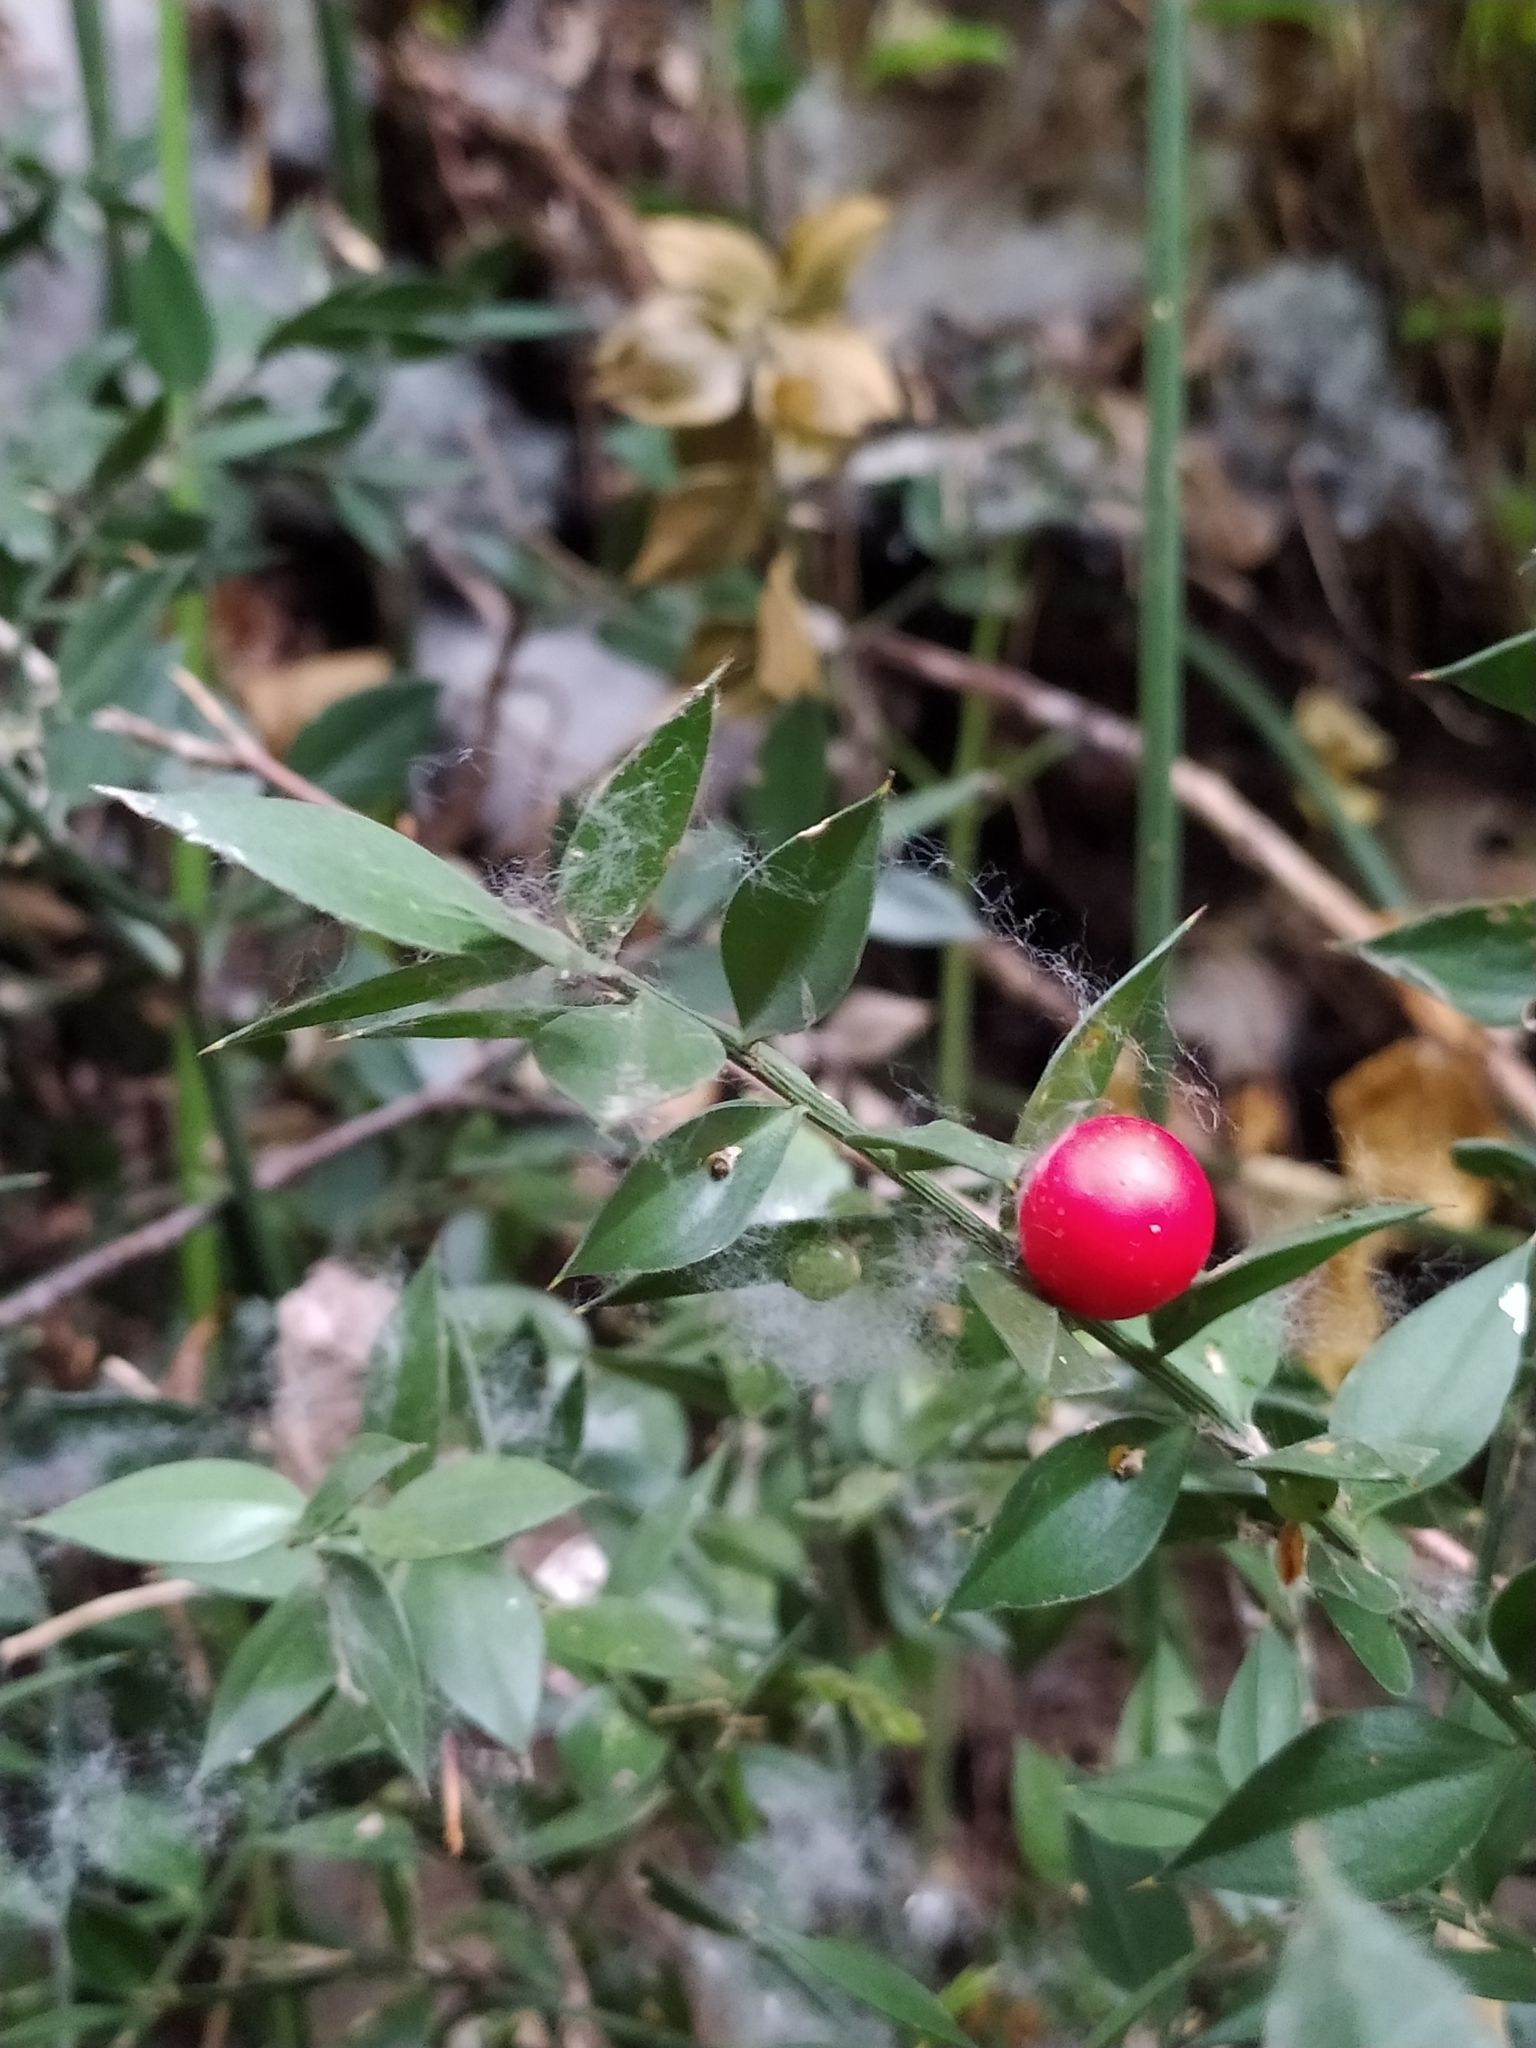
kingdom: Plantae
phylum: Tracheophyta
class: Liliopsida
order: Asparagales
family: Asparagaceae
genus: Ruscus
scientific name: Ruscus aculeatus
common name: Butcher's-broom
